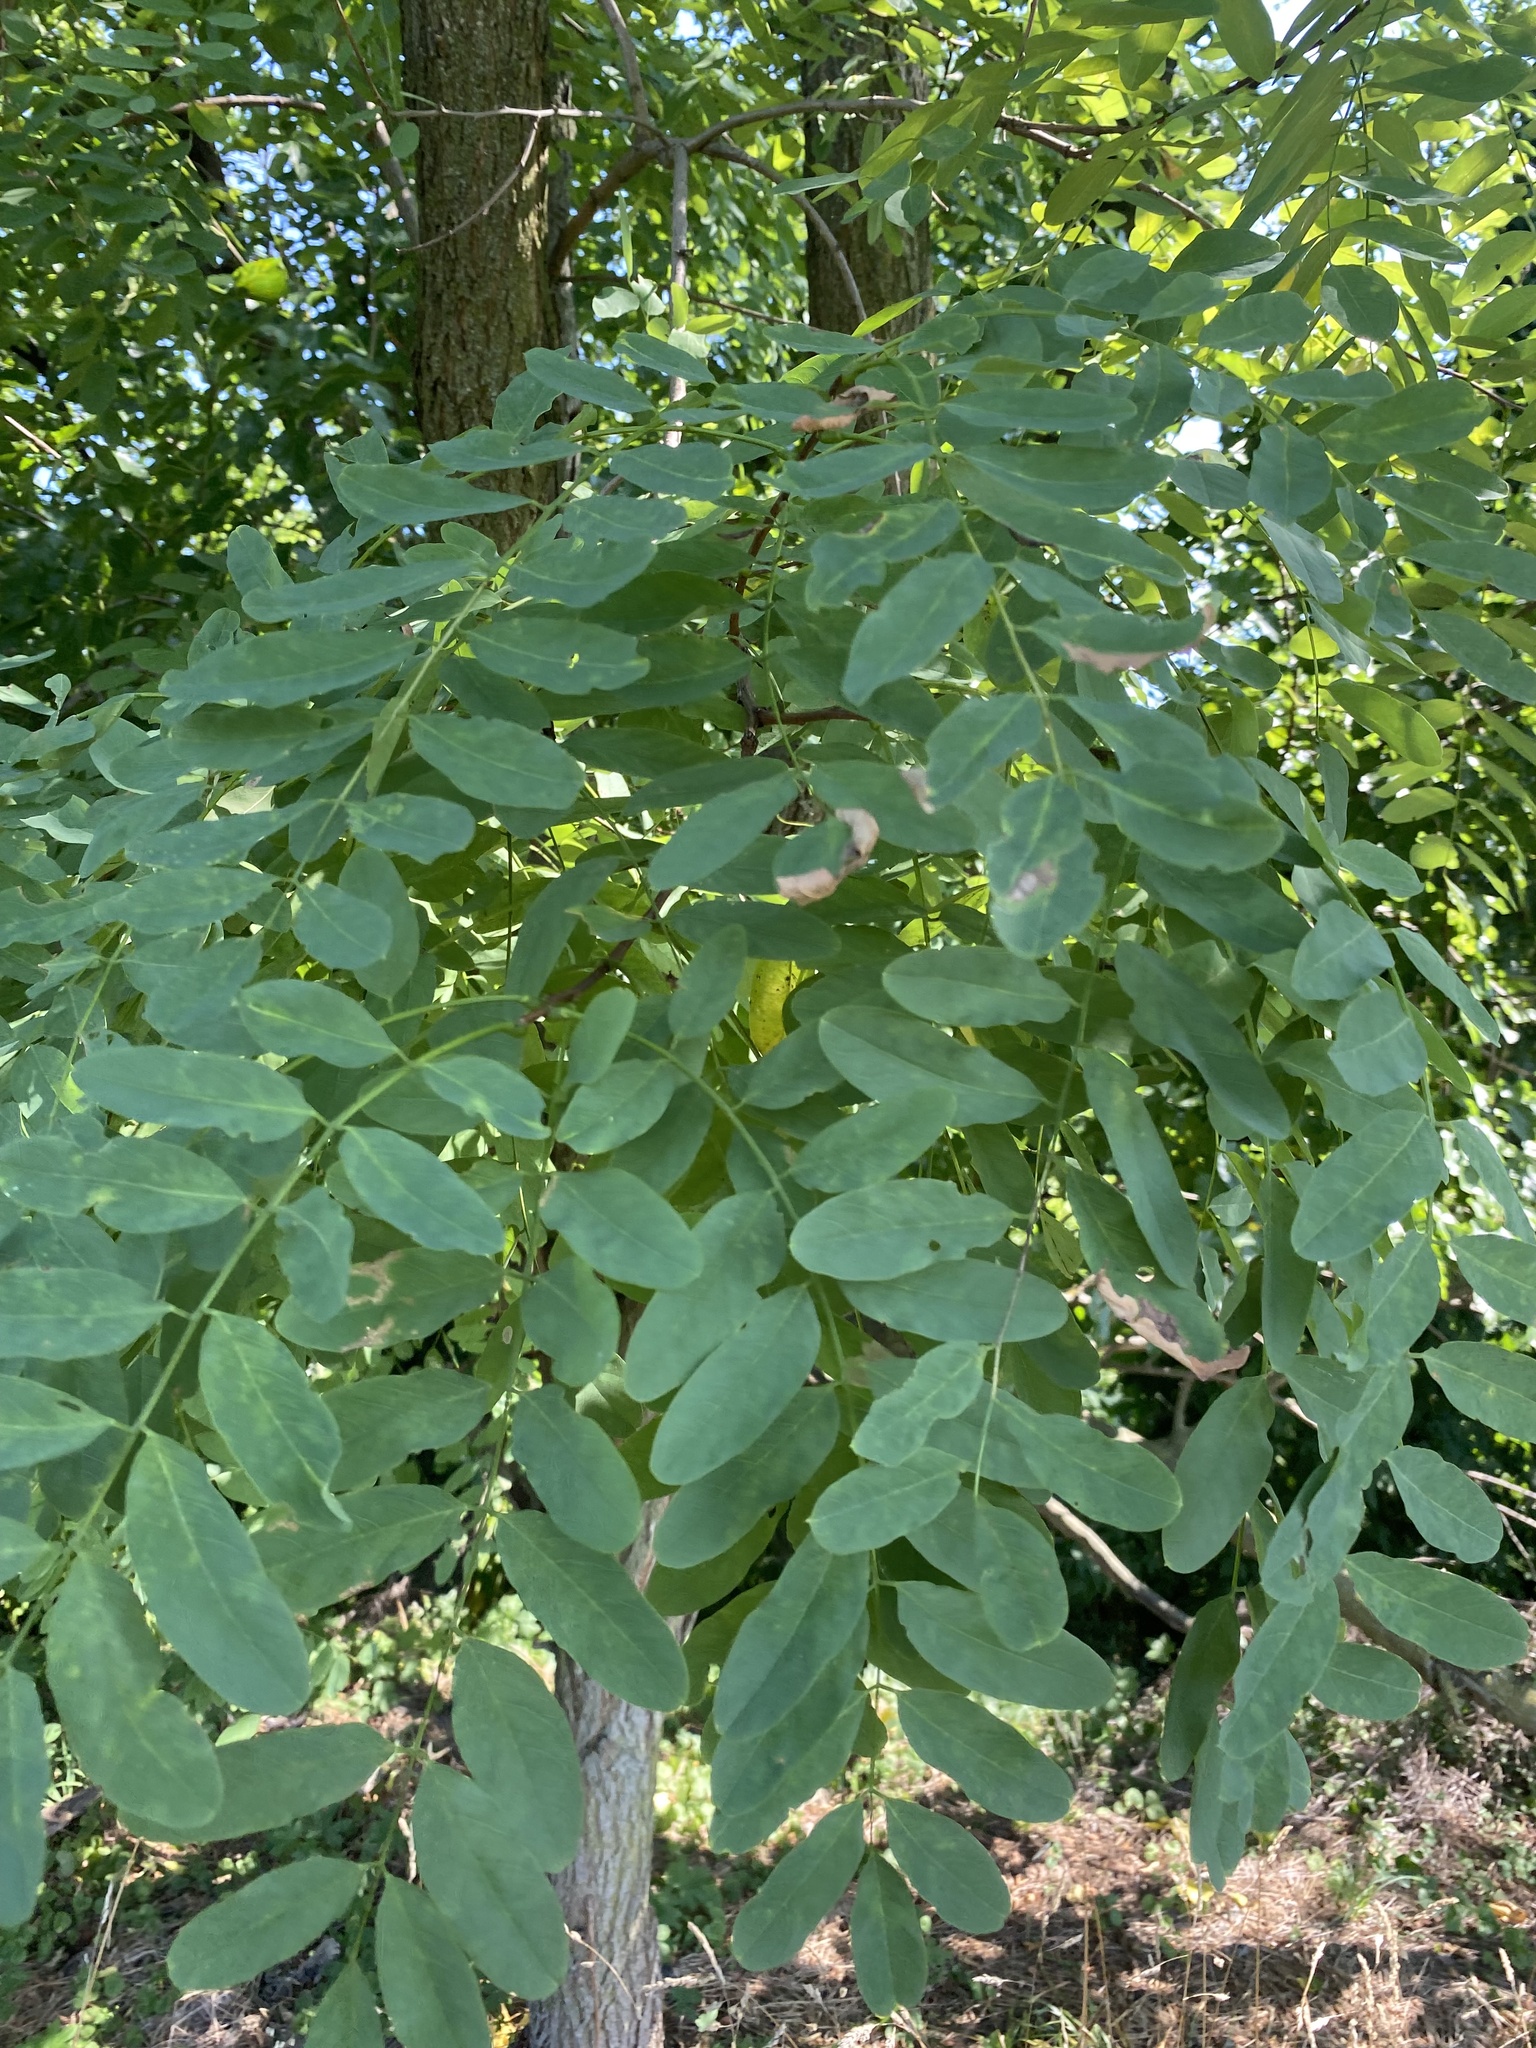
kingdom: Plantae
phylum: Tracheophyta
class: Magnoliopsida
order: Fabales
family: Fabaceae
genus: Robinia
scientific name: Robinia pseudoacacia
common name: Black locust
